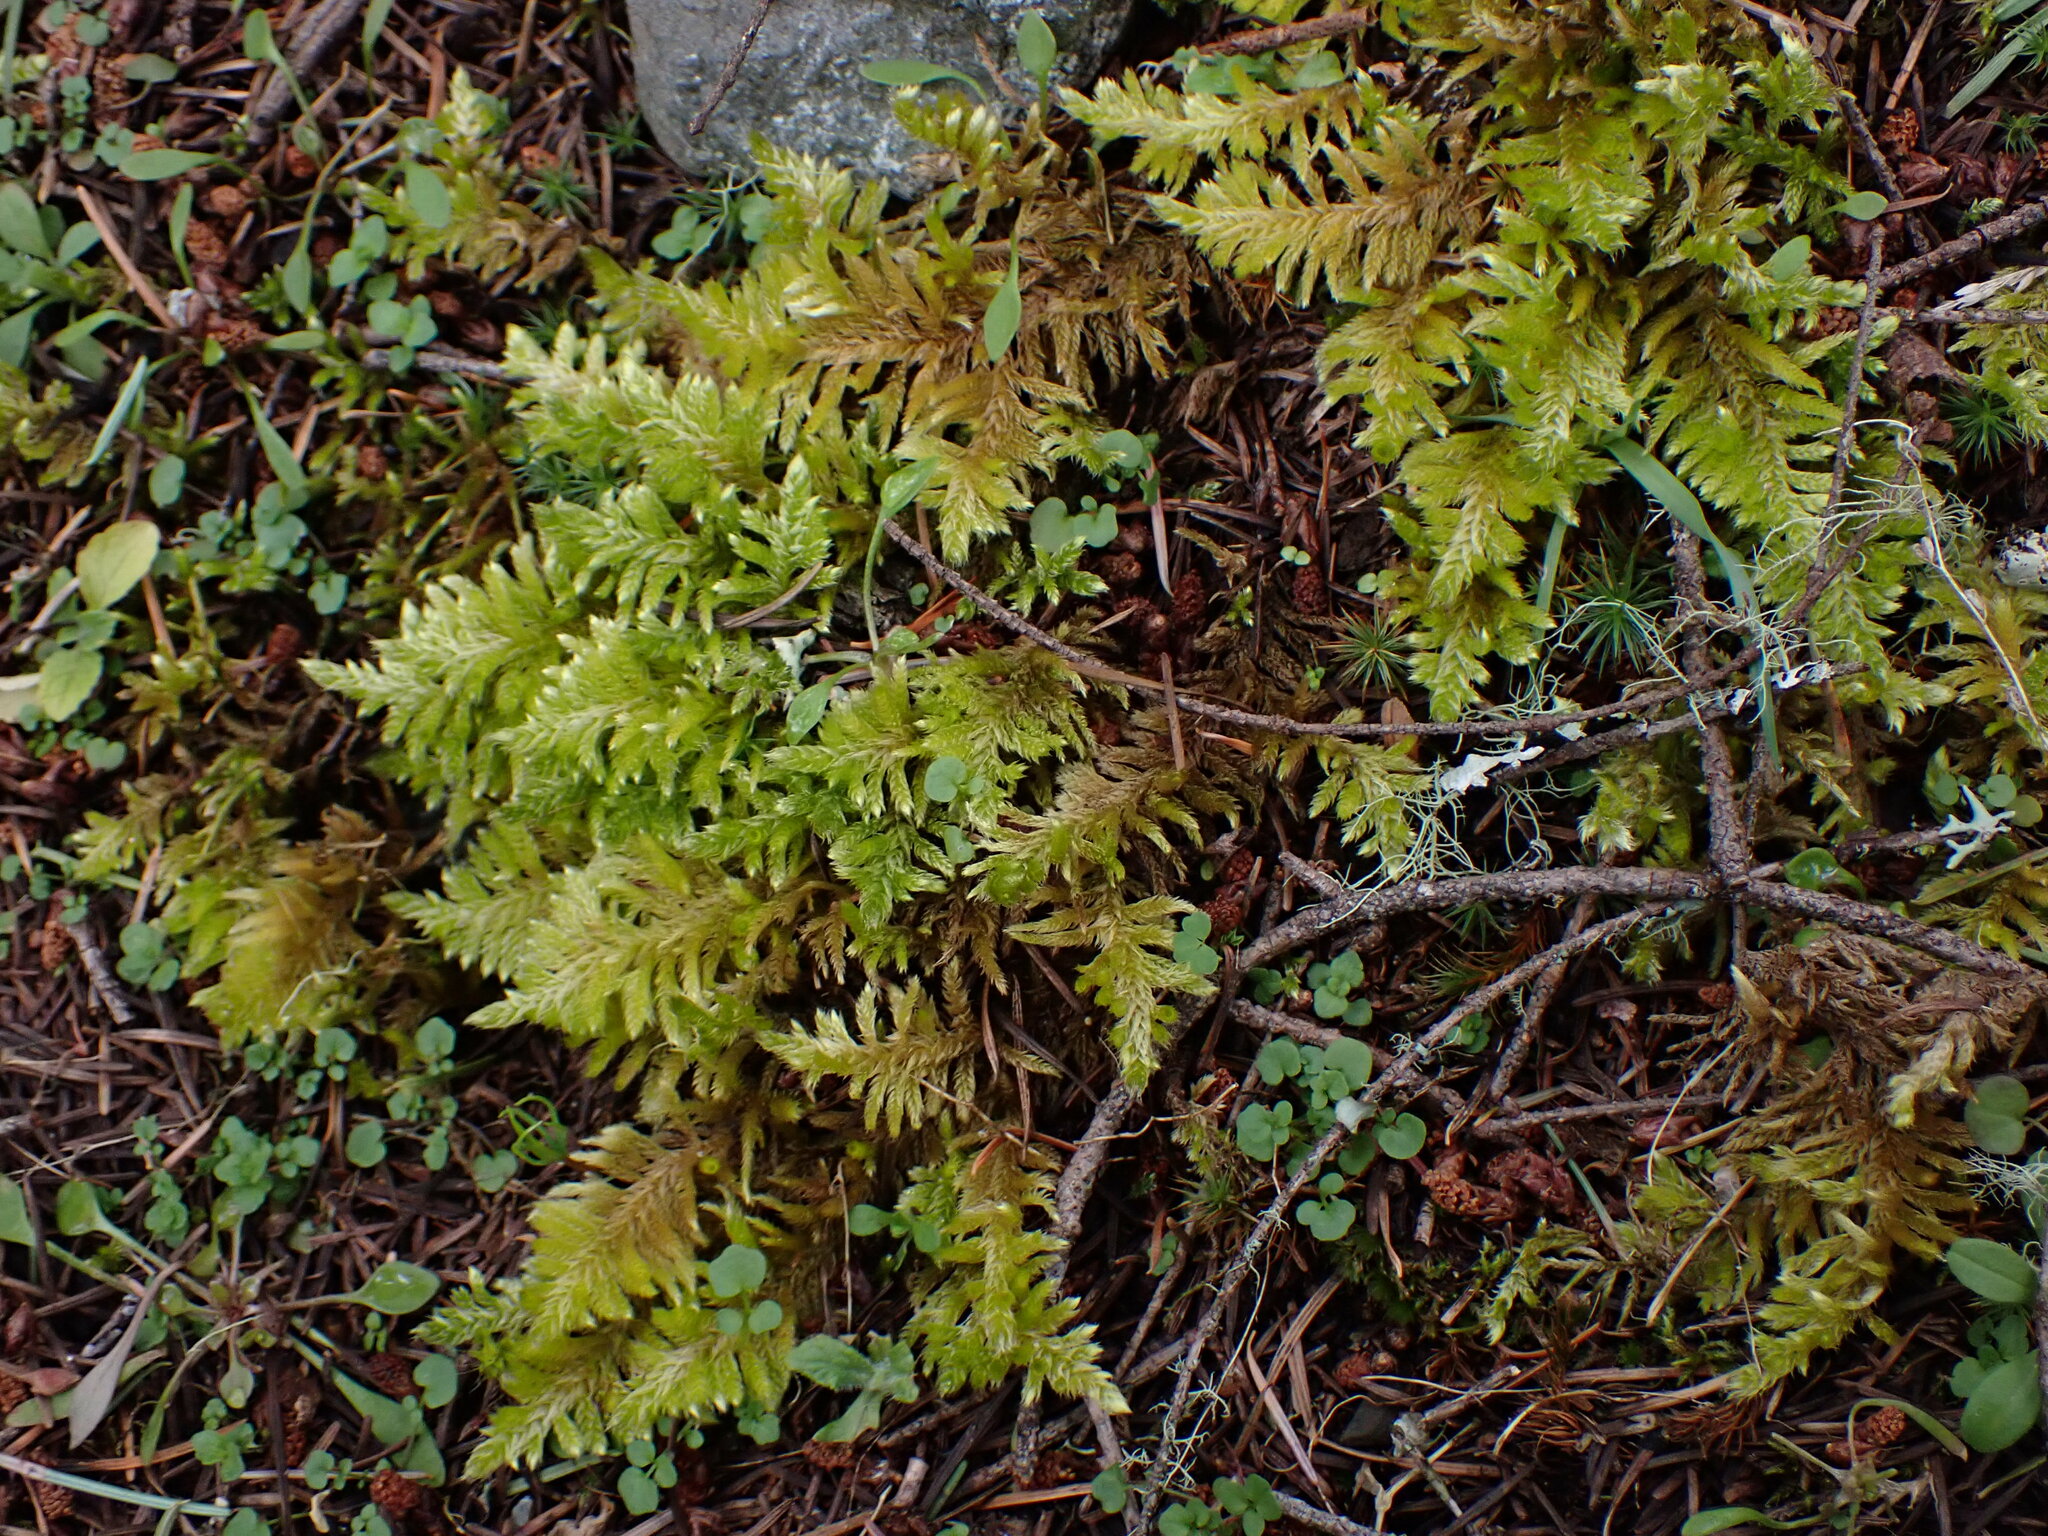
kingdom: Plantae
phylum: Bryophyta
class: Bryopsida
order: Hypnales
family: Brachytheciaceae
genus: Homalothecium
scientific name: Homalothecium megaptilum
